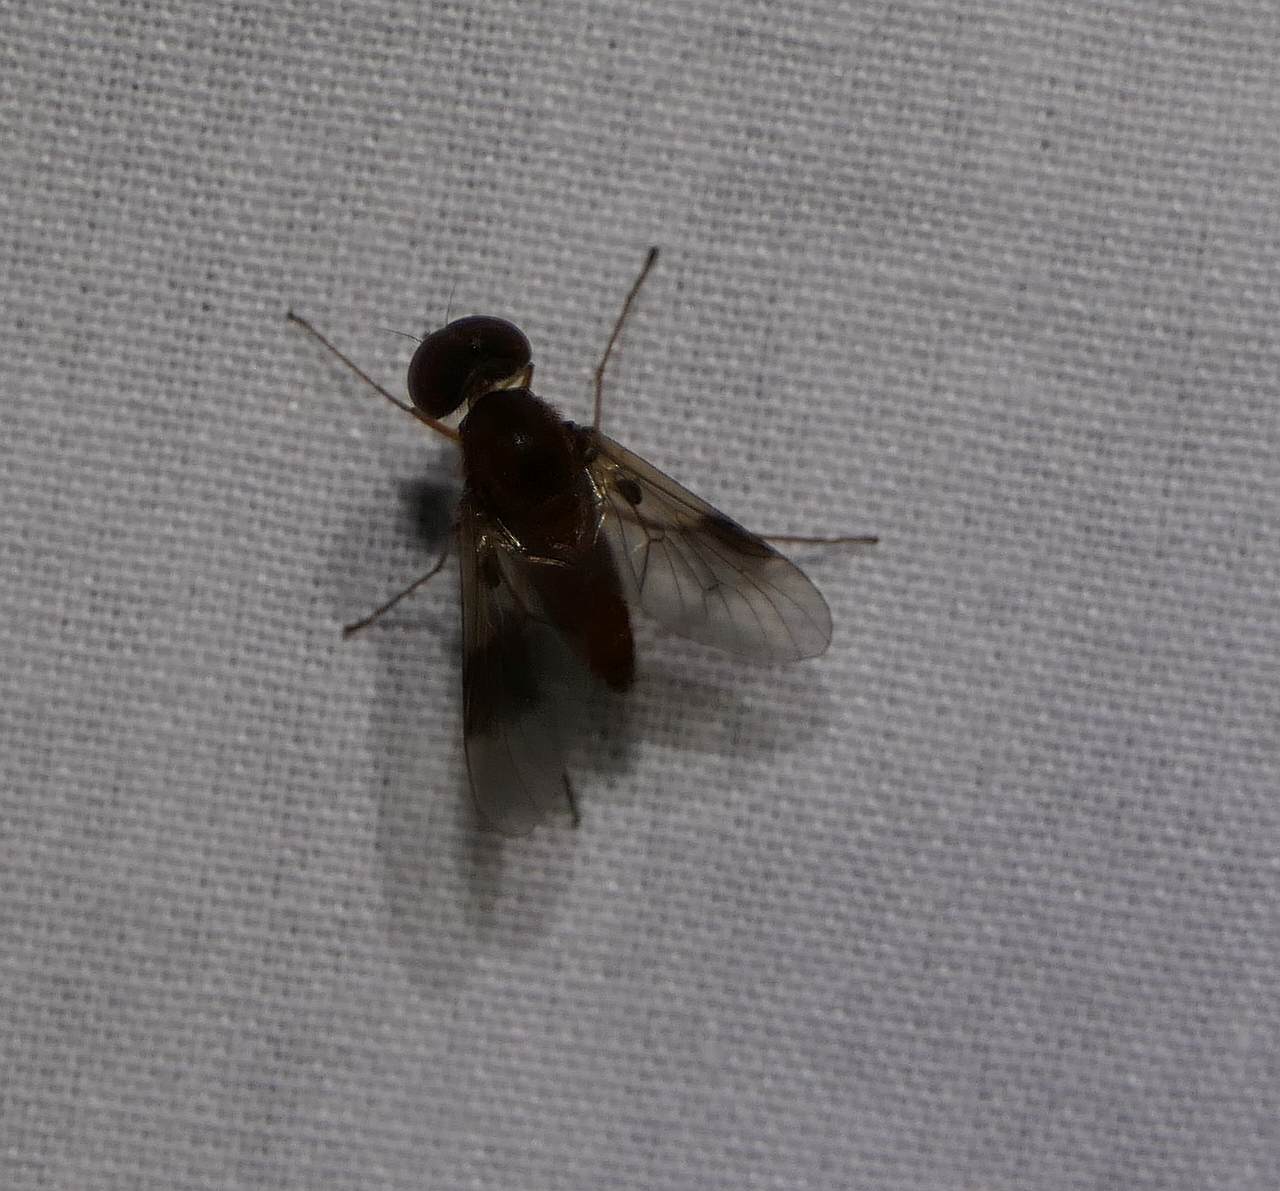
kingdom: Animalia
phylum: Arthropoda
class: Insecta
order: Diptera
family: Rhagionidae
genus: Chrysopilus
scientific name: Chrysopilus quadratus
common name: Quadrate snipe fly
